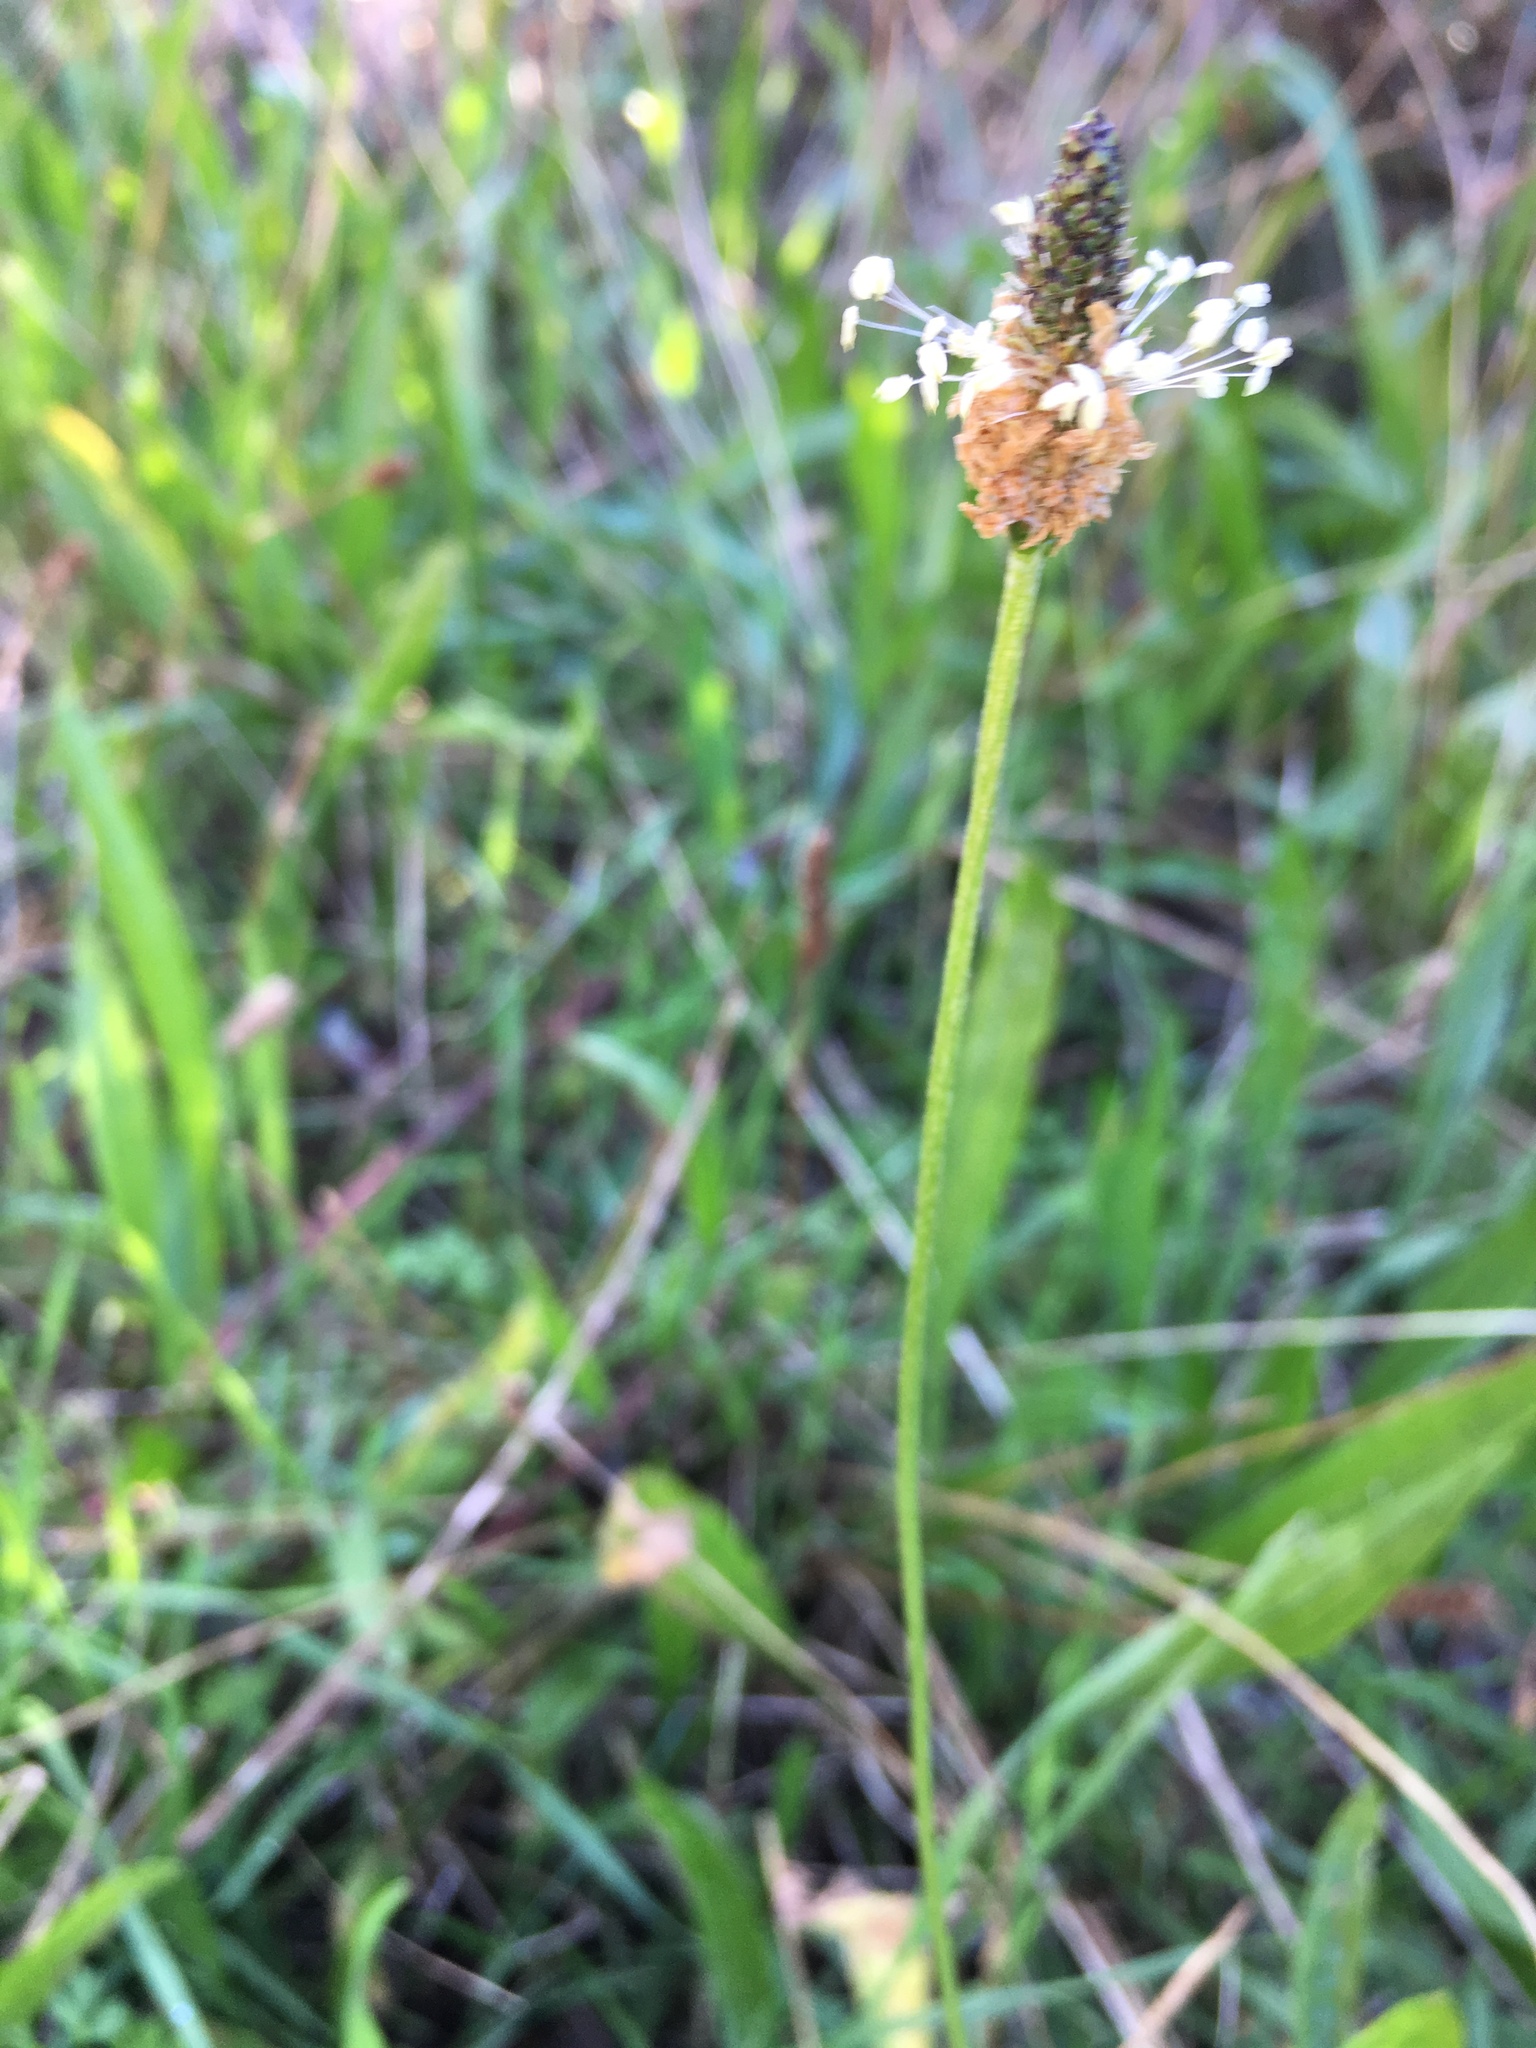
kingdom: Plantae
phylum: Tracheophyta
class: Magnoliopsida
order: Lamiales
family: Plantaginaceae
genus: Plantago
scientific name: Plantago lanceolata
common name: Ribwort plantain
